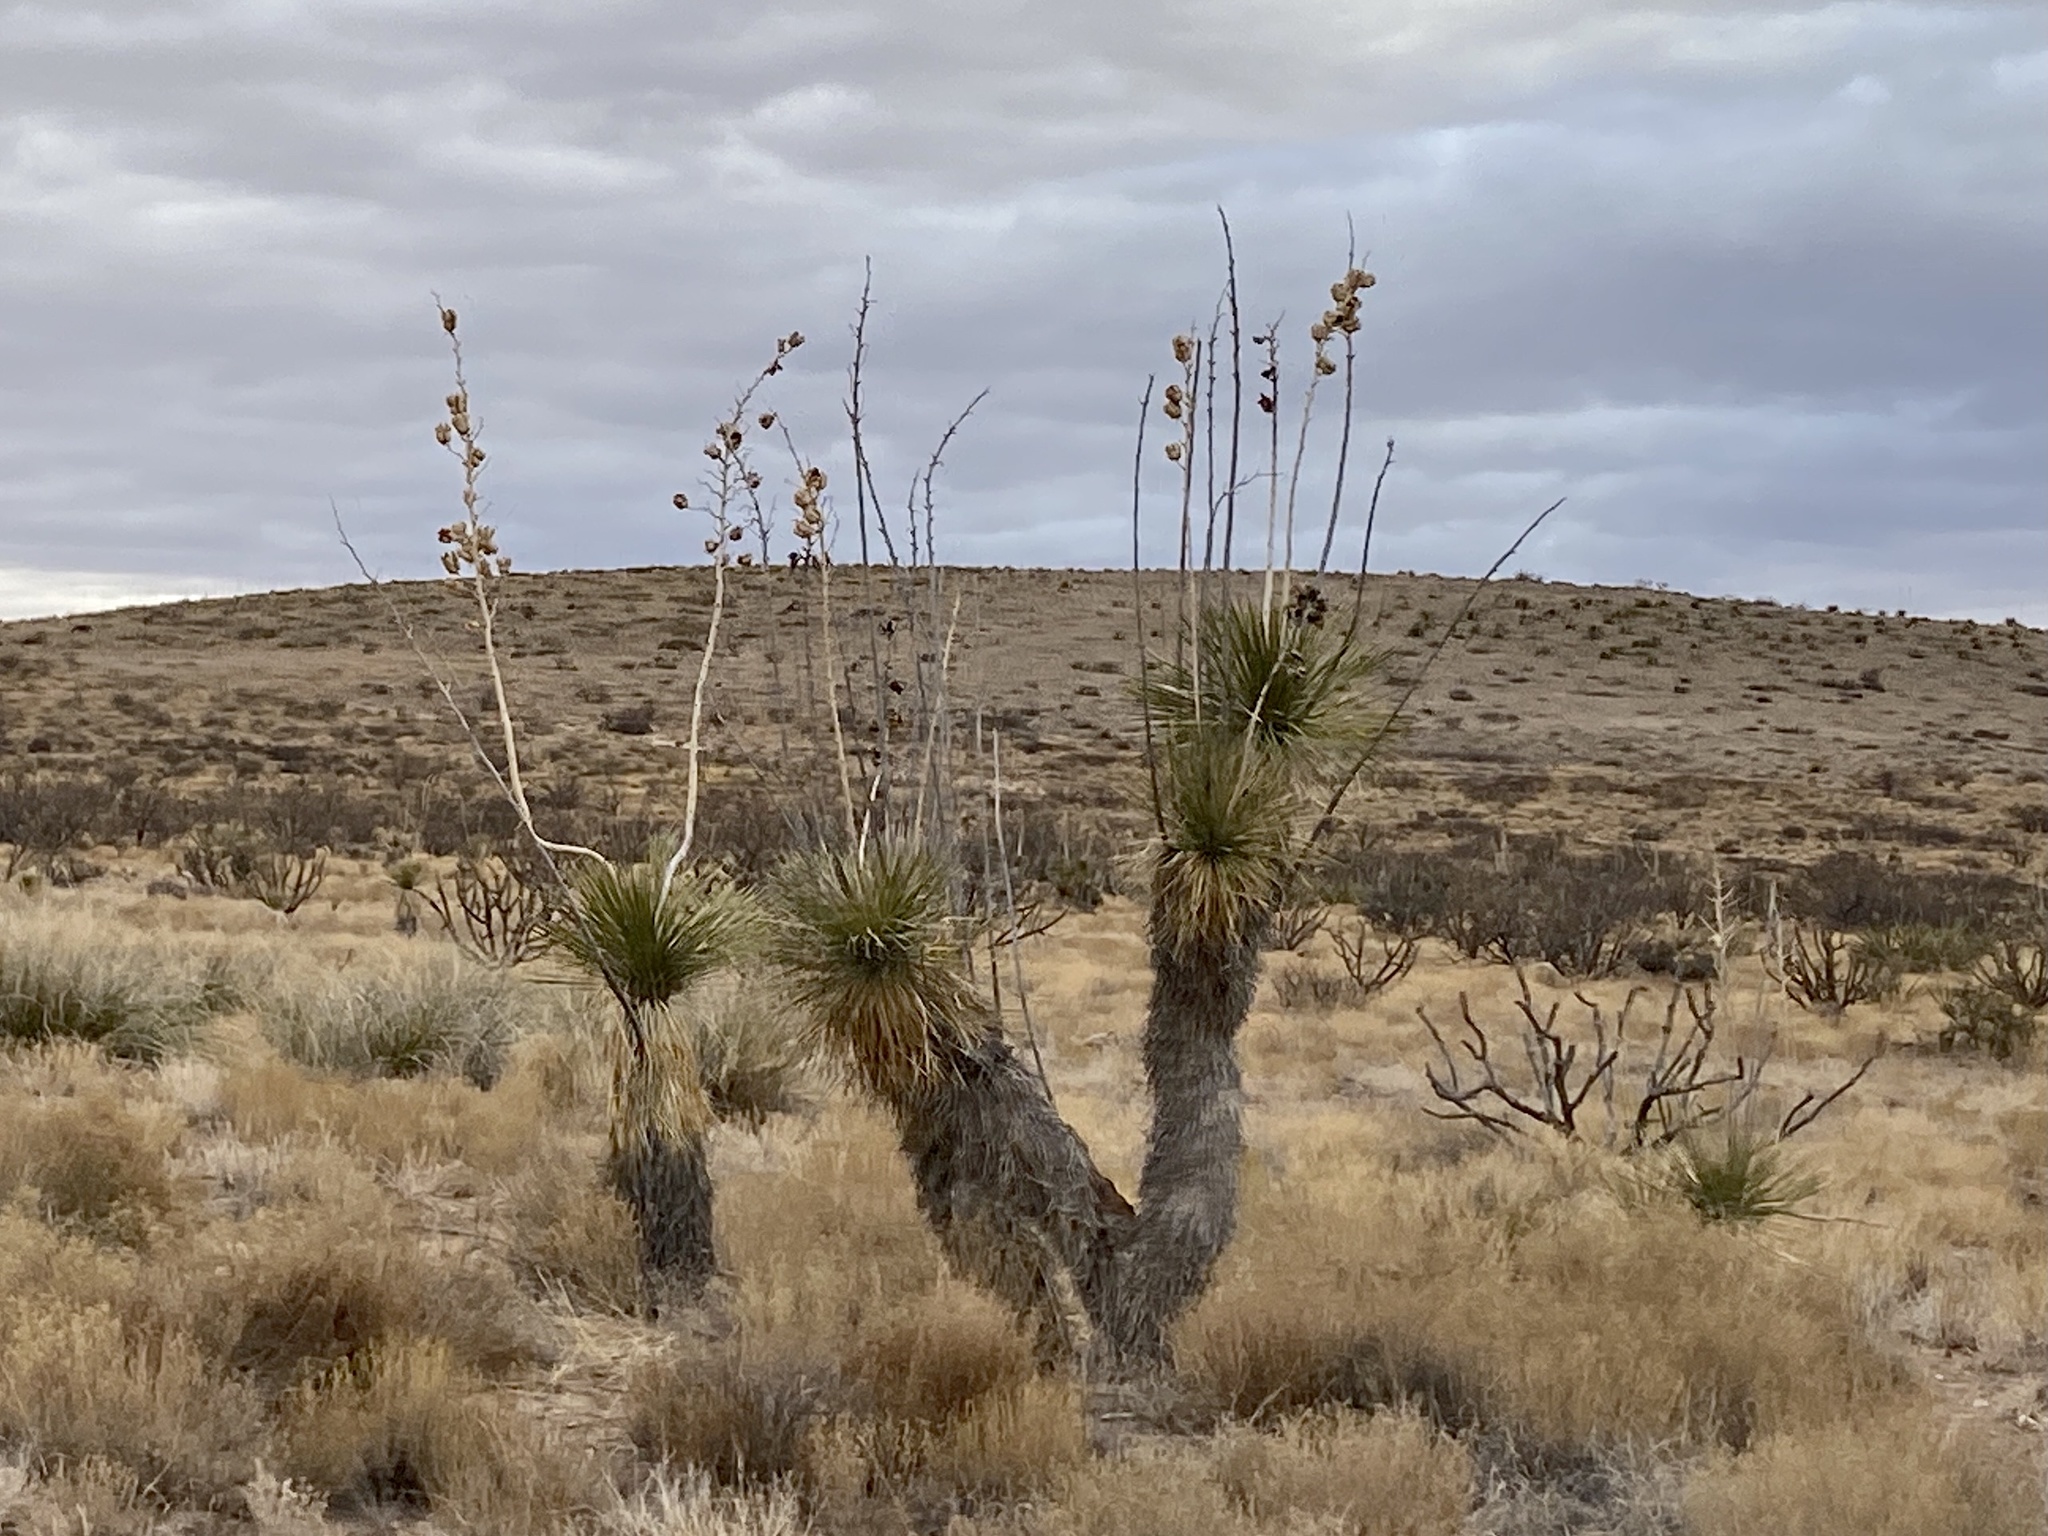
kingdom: Plantae
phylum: Tracheophyta
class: Liliopsida
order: Asparagales
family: Asparagaceae
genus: Yucca
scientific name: Yucca elata
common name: Palmella
